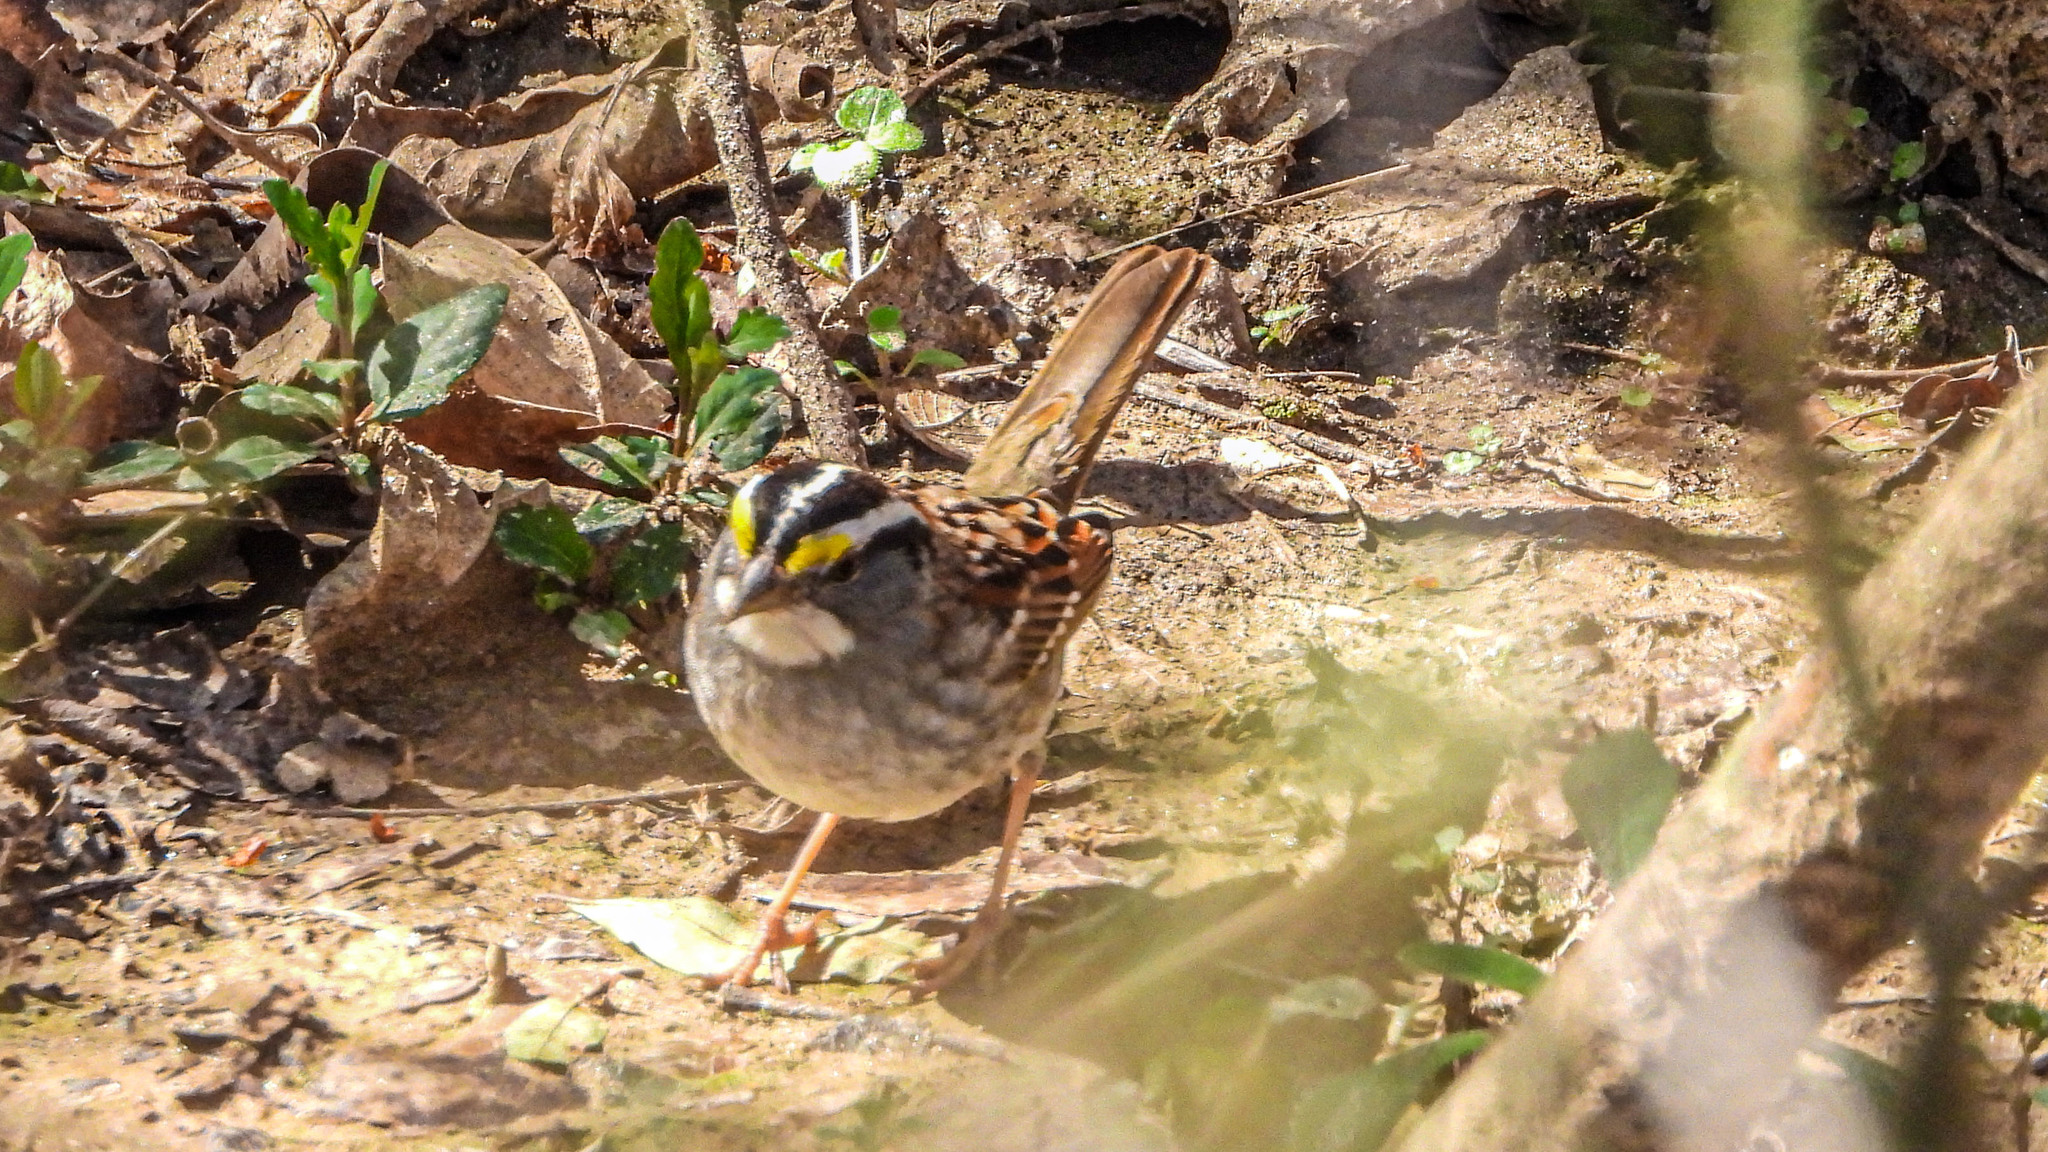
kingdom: Animalia
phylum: Chordata
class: Aves
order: Passeriformes
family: Passerellidae
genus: Zonotrichia
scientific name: Zonotrichia albicollis
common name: White-throated sparrow
